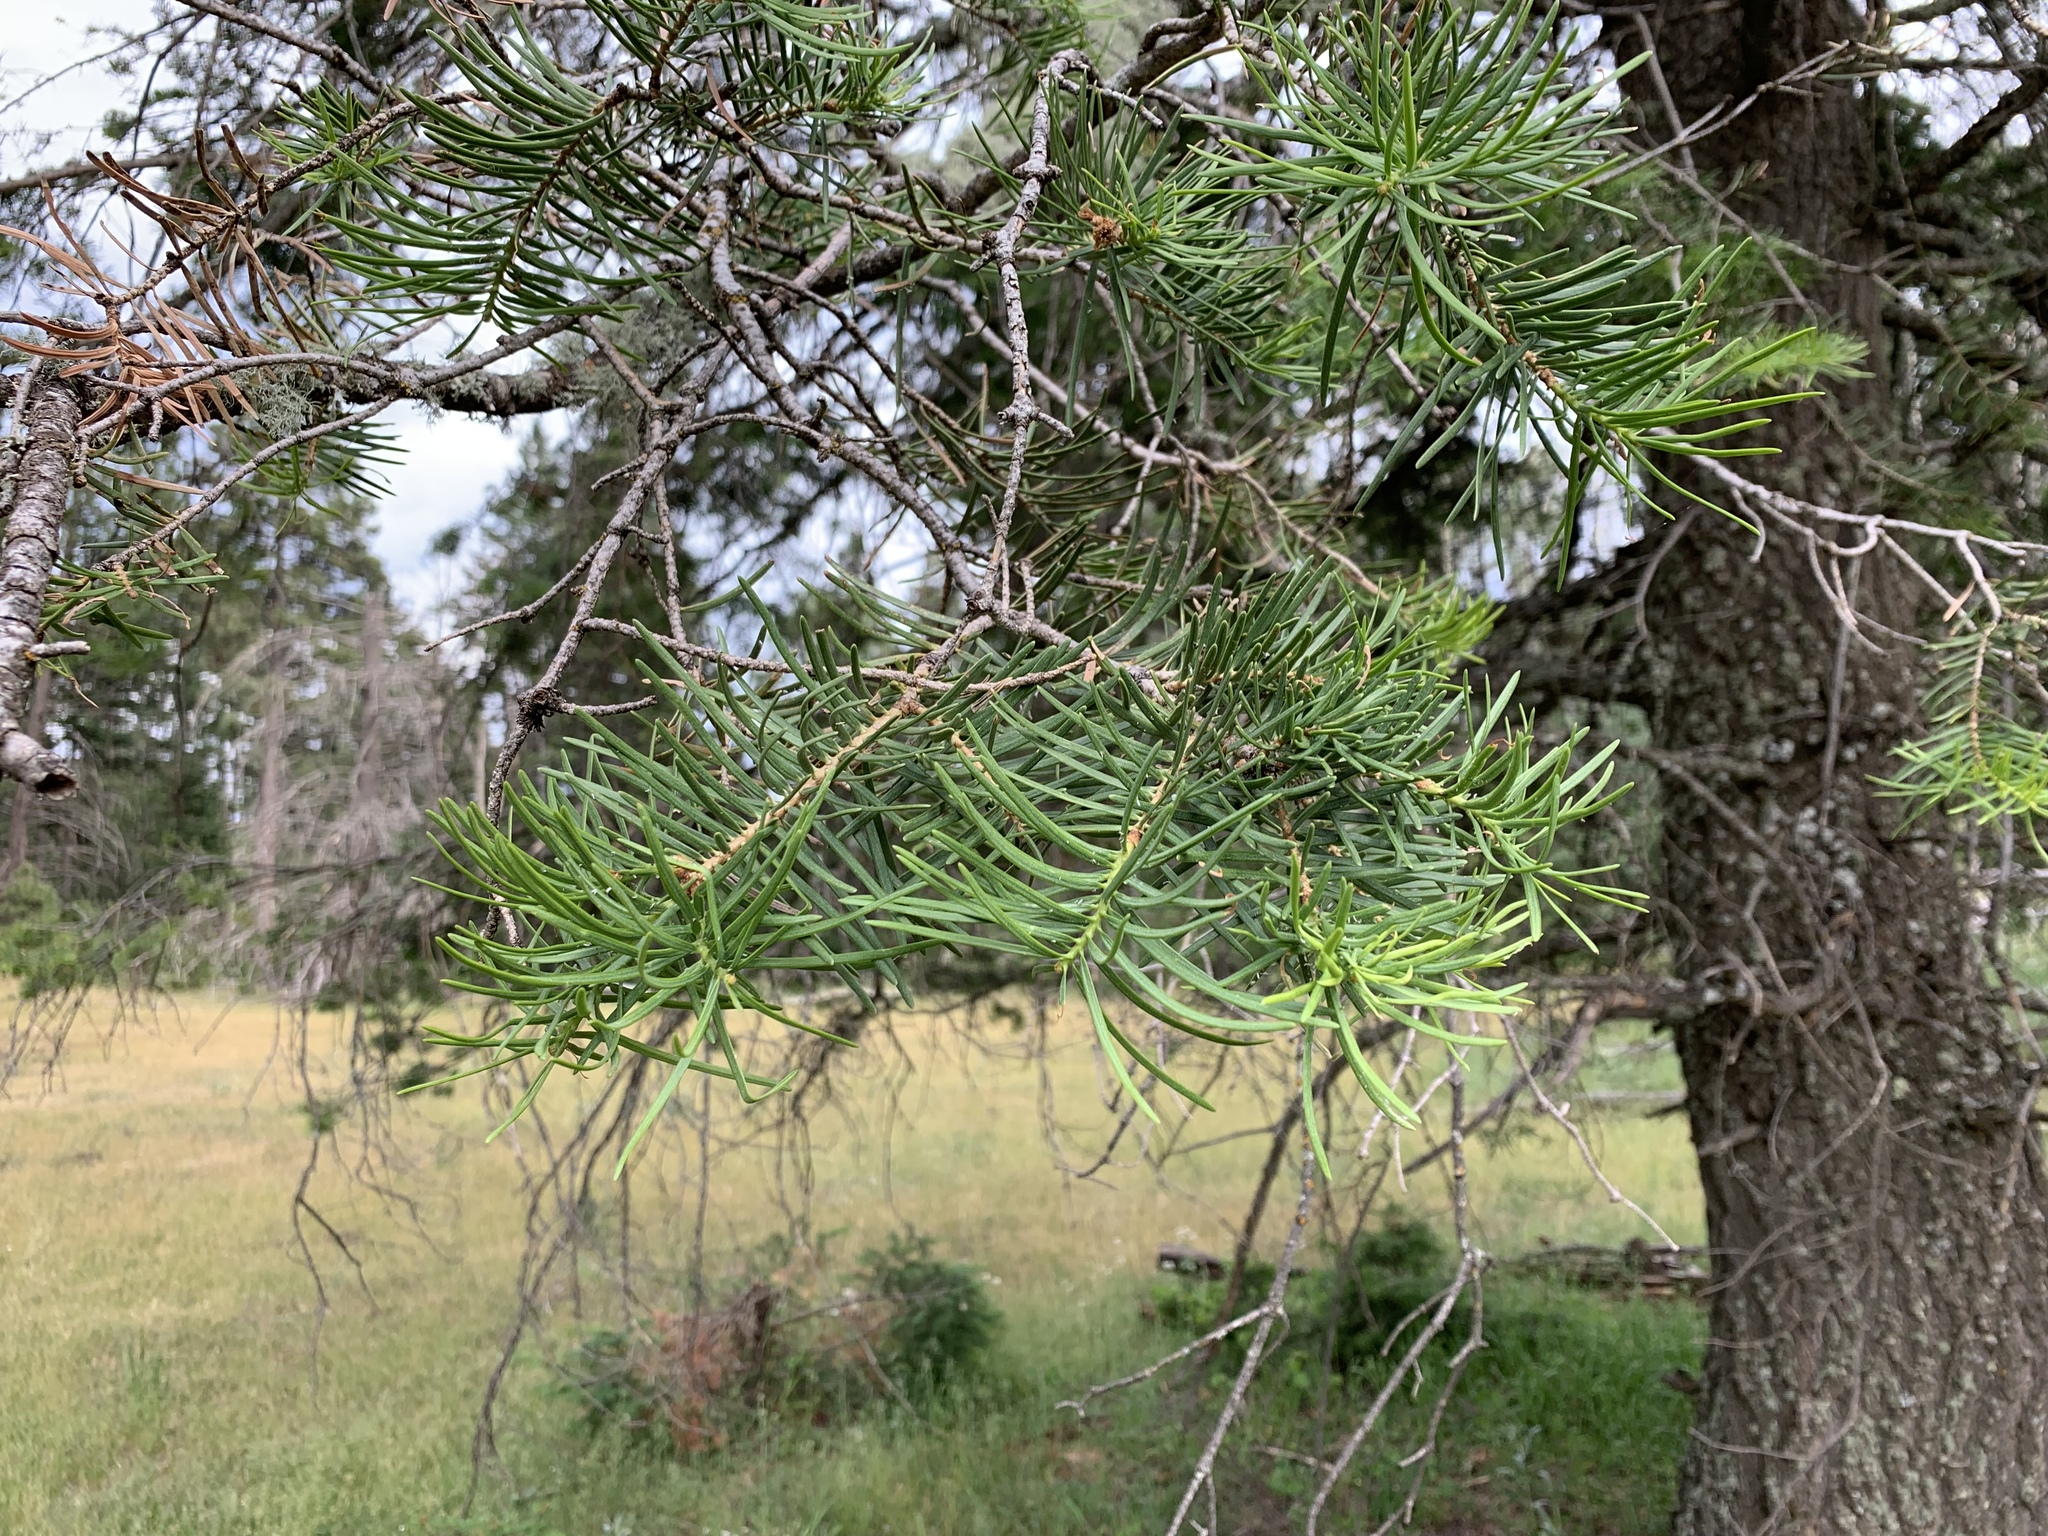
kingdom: Plantae
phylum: Tracheophyta
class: Pinopsida
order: Pinales
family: Pinaceae
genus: Abies
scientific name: Abies concolor
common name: Colorado fir
